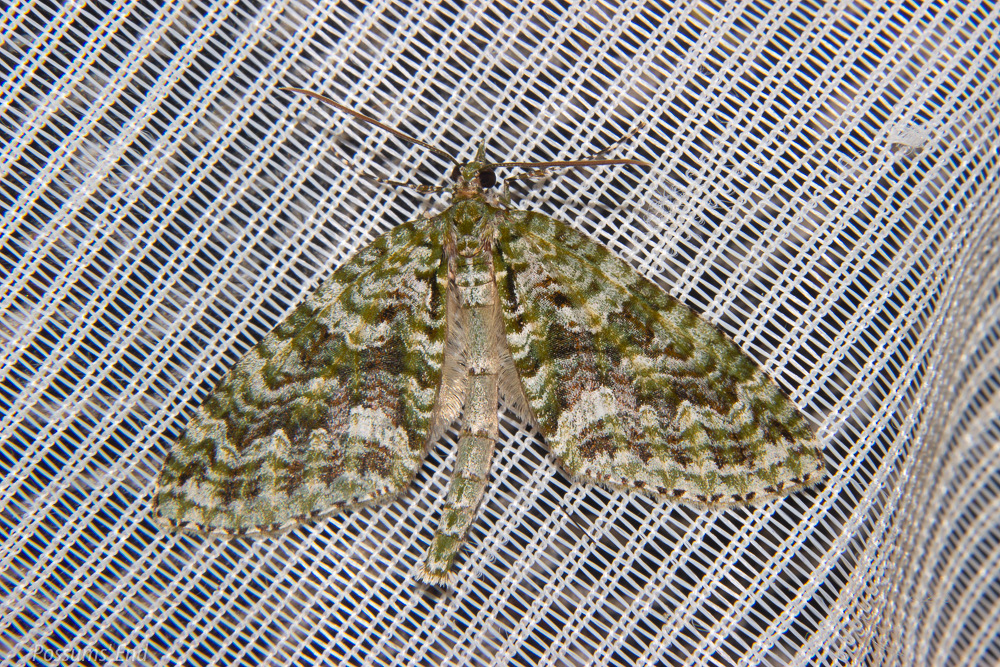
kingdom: Animalia
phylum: Arthropoda
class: Insecta
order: Lepidoptera
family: Geometridae
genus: Tatosoma
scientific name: Tatosoma agrionata
